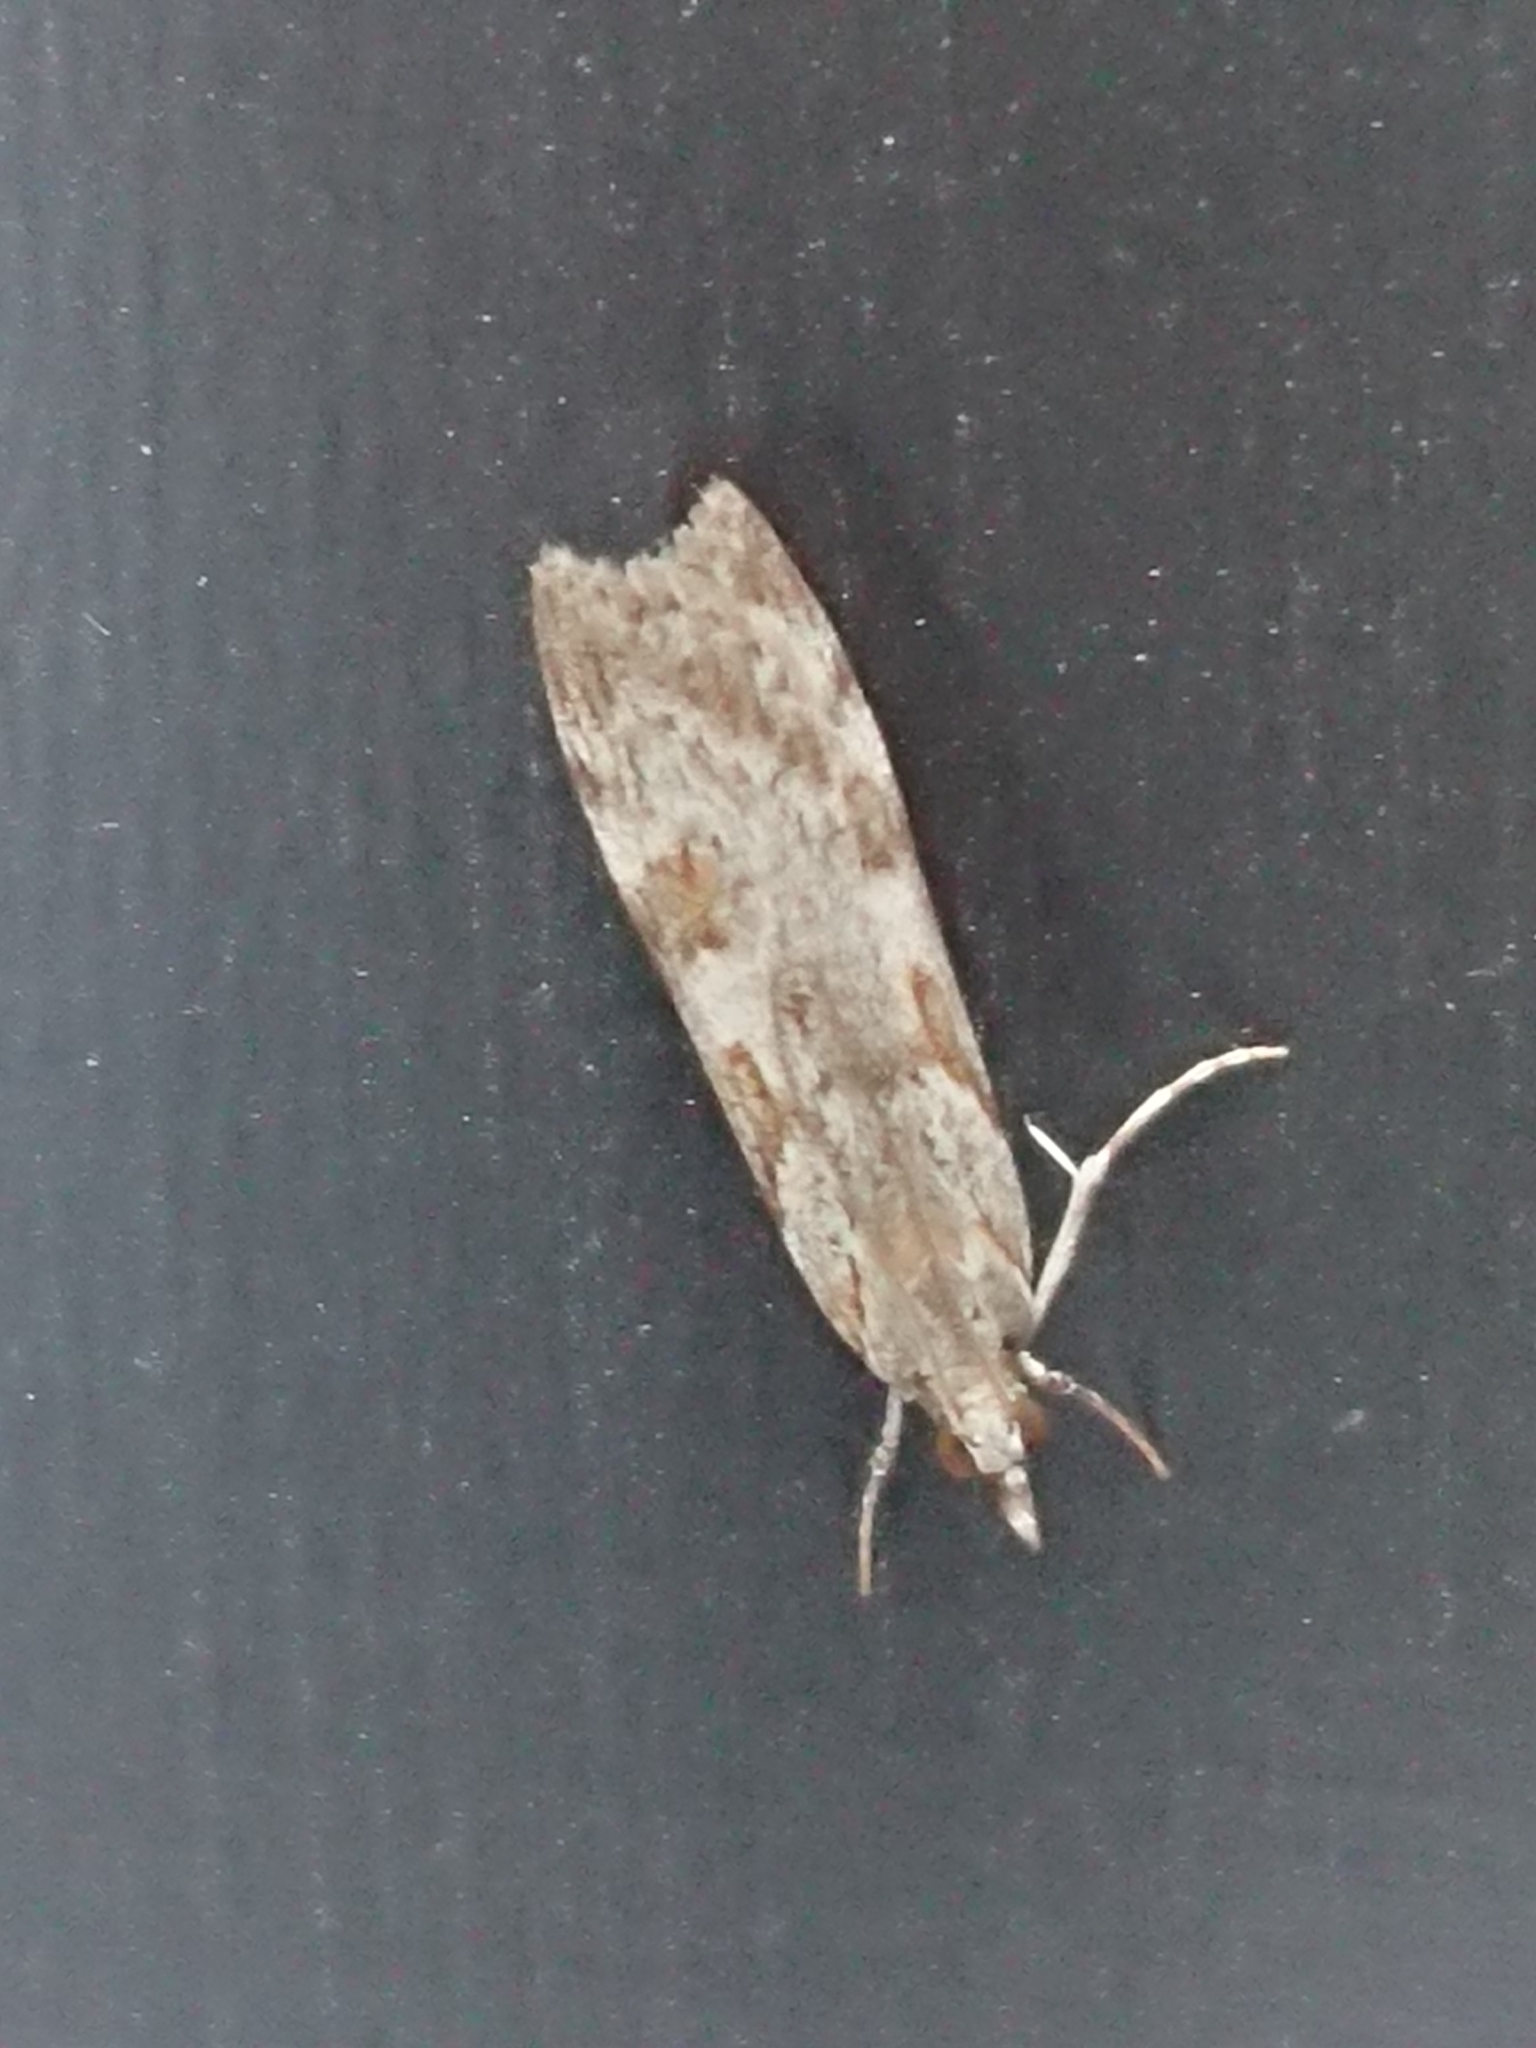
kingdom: Animalia
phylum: Arthropoda
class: Insecta
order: Lepidoptera
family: Crambidae
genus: Scoparia
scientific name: Scoparia halopis
